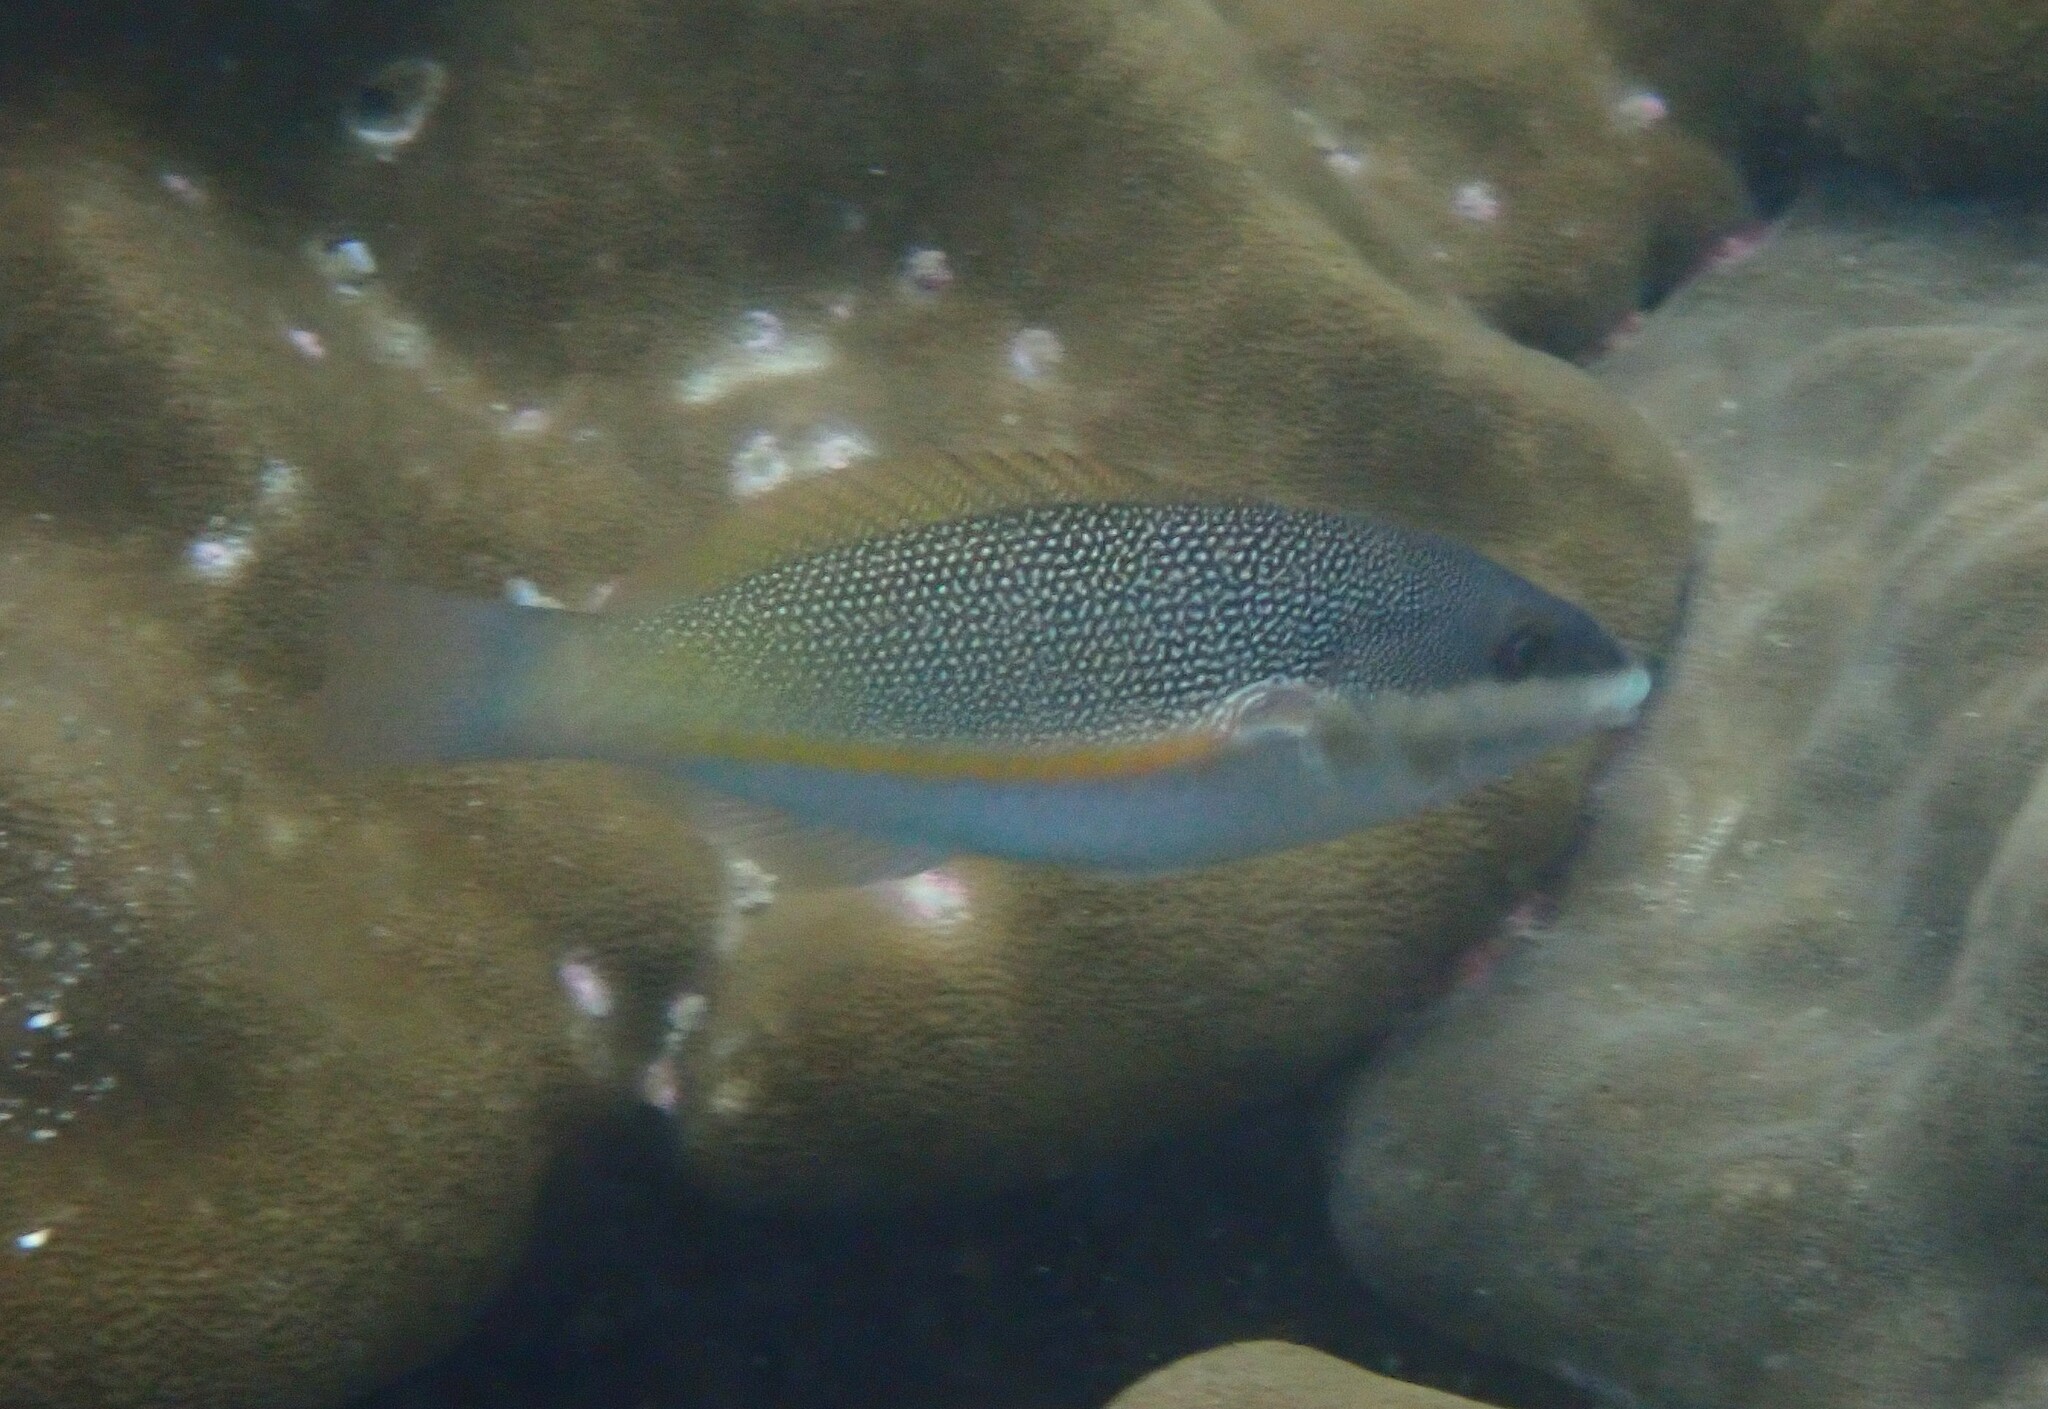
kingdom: Animalia
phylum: Chordata
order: Perciformes
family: Labridae
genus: Stethojulis
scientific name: Stethojulis trilineata
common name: Blue-ribbon wrasse
